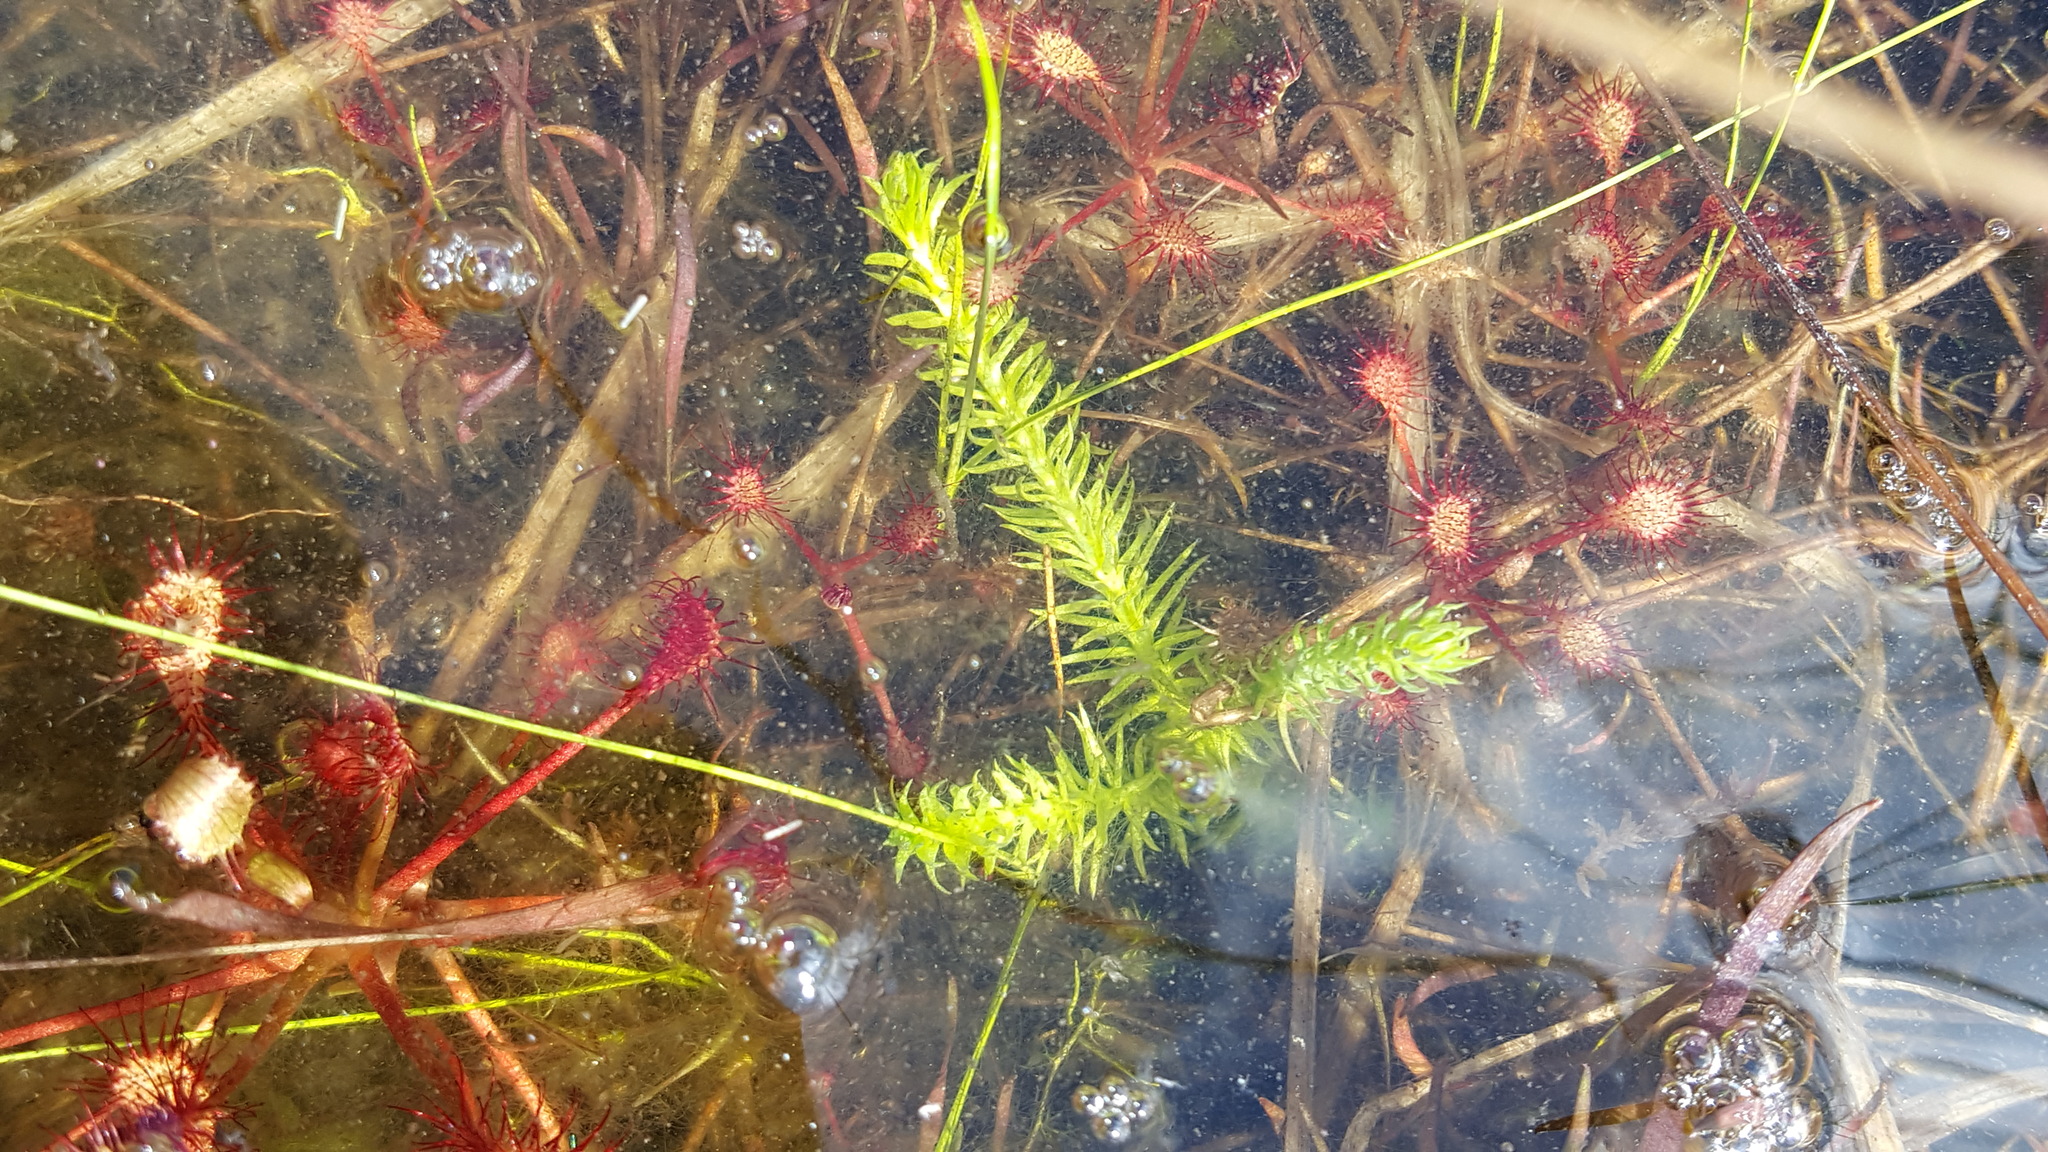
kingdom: Plantae
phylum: Tracheophyta
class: Lycopodiopsida
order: Lycopodiales
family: Lycopodiaceae
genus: Lycopodiella
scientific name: Lycopodiella inundata
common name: Marsh clubmoss
